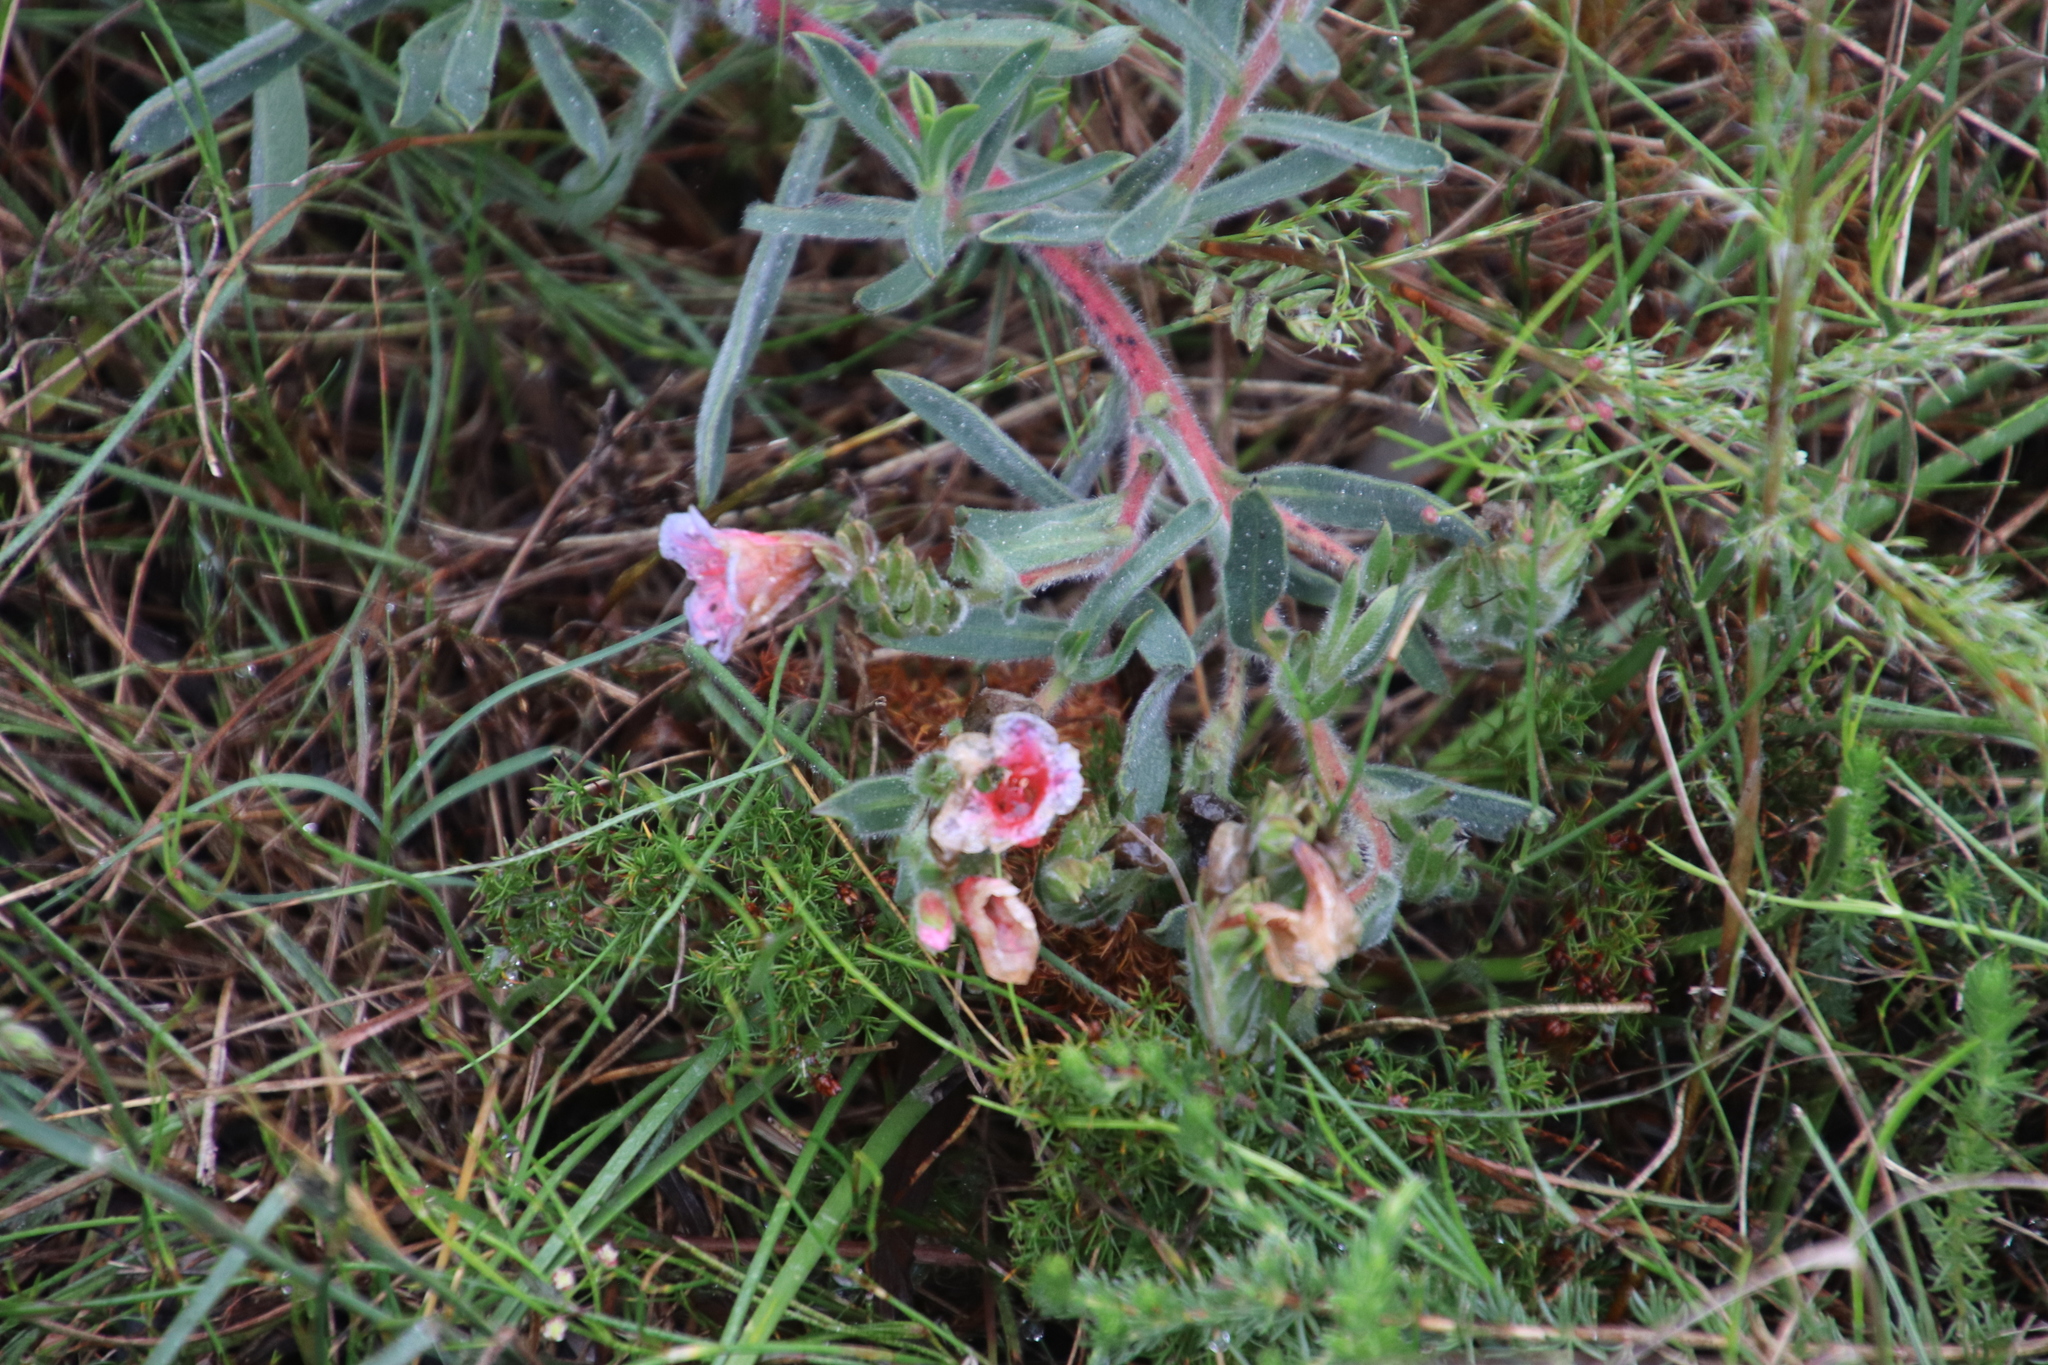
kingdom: Plantae
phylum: Tracheophyta
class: Magnoliopsida
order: Boraginales
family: Boraginaceae
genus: Lobostemon
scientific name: Lobostemon curvifolius
